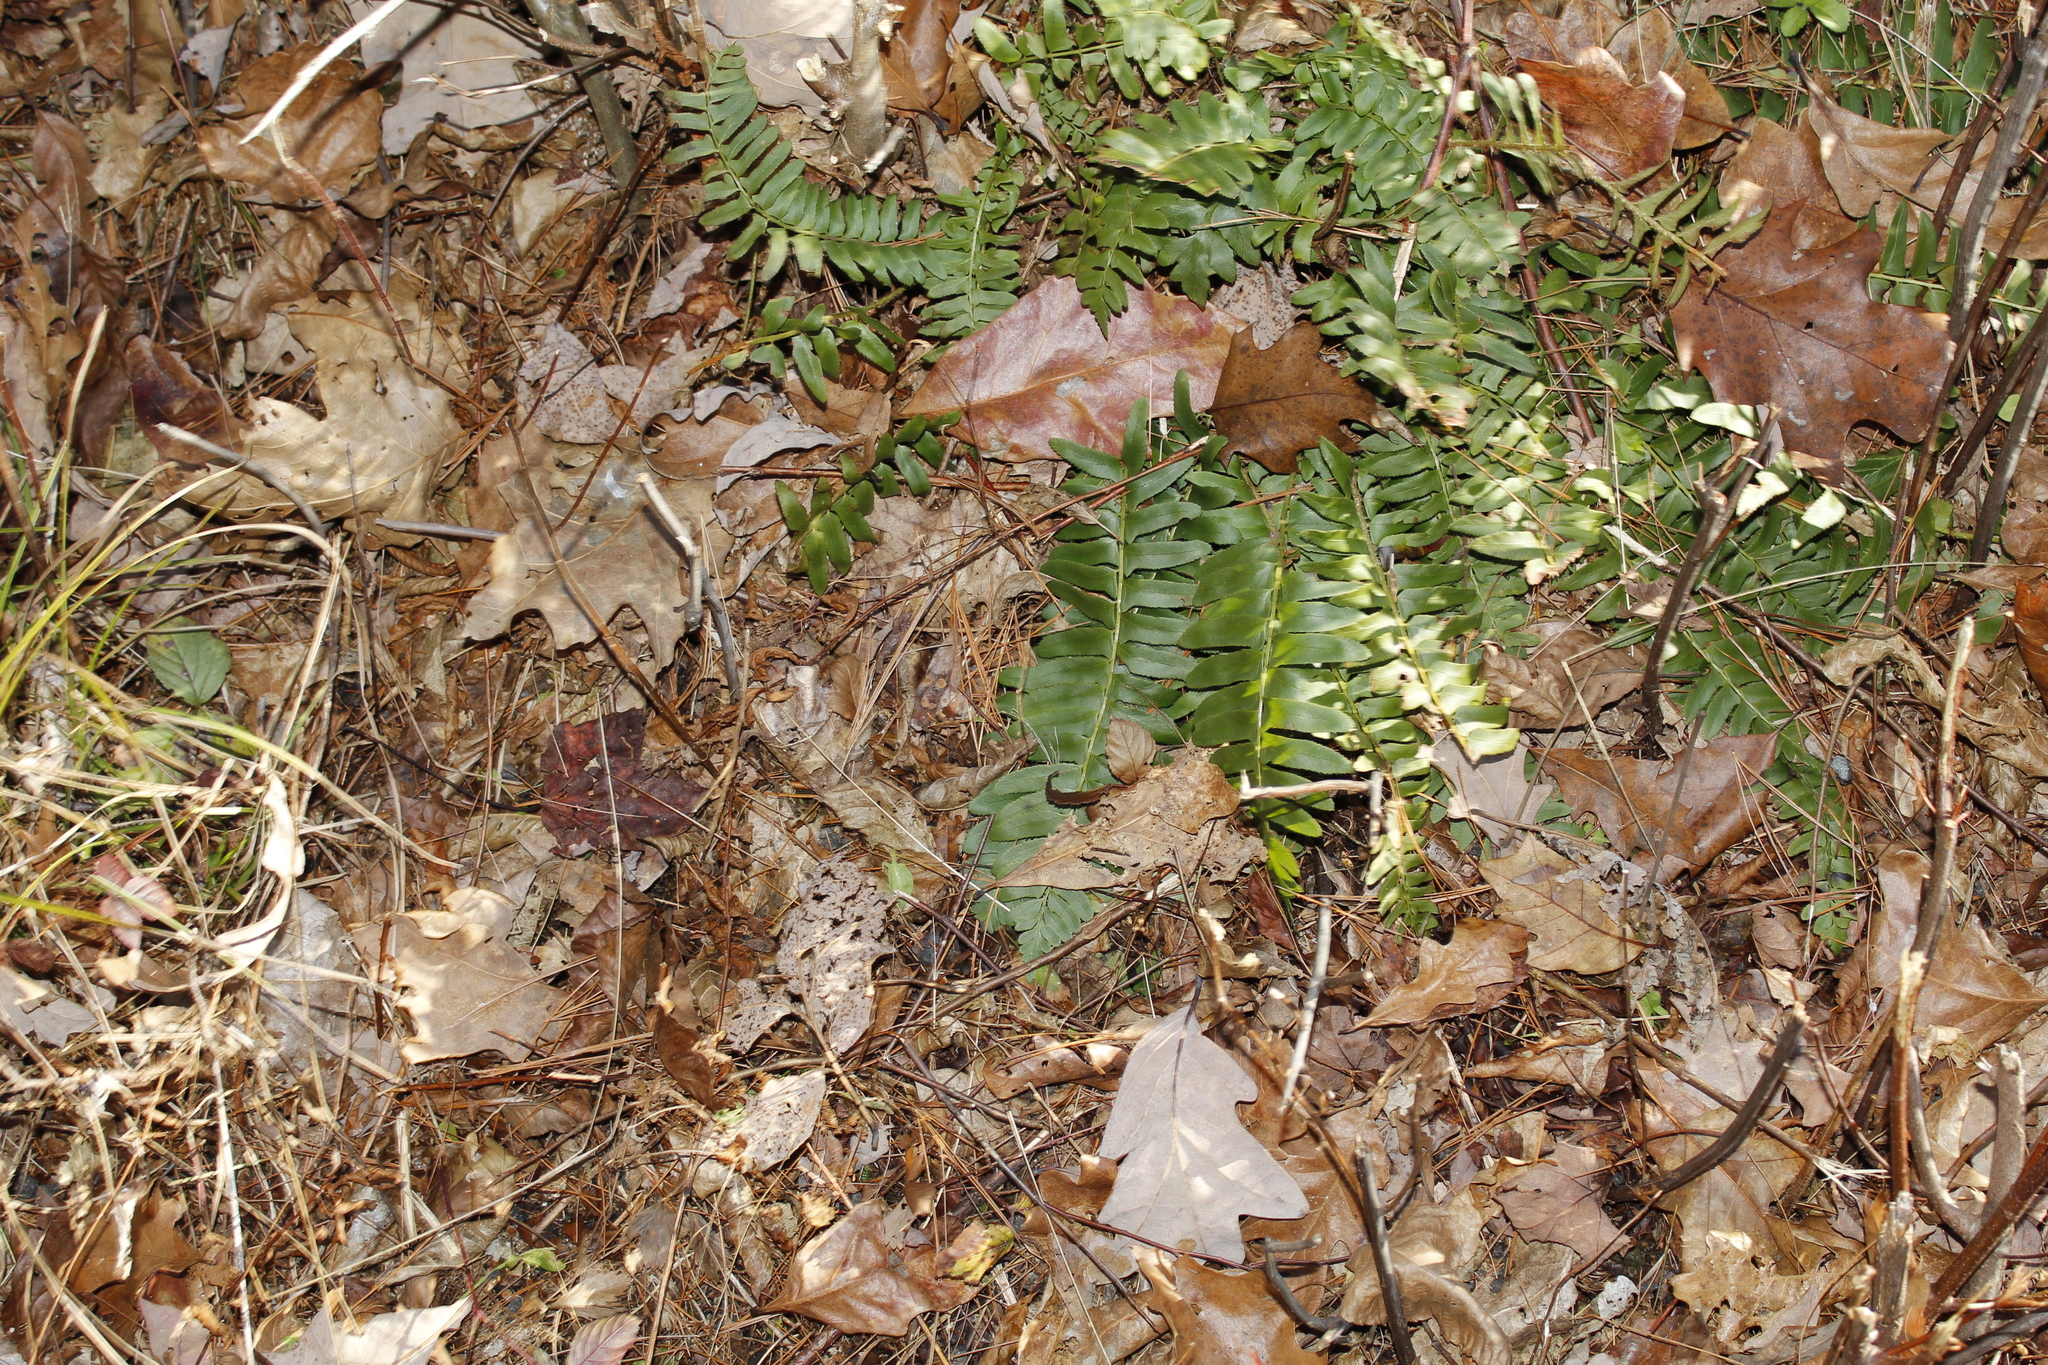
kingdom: Plantae
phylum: Tracheophyta
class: Polypodiopsida
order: Polypodiales
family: Dryopteridaceae
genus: Polystichum
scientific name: Polystichum acrostichoides
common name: Christmas fern
